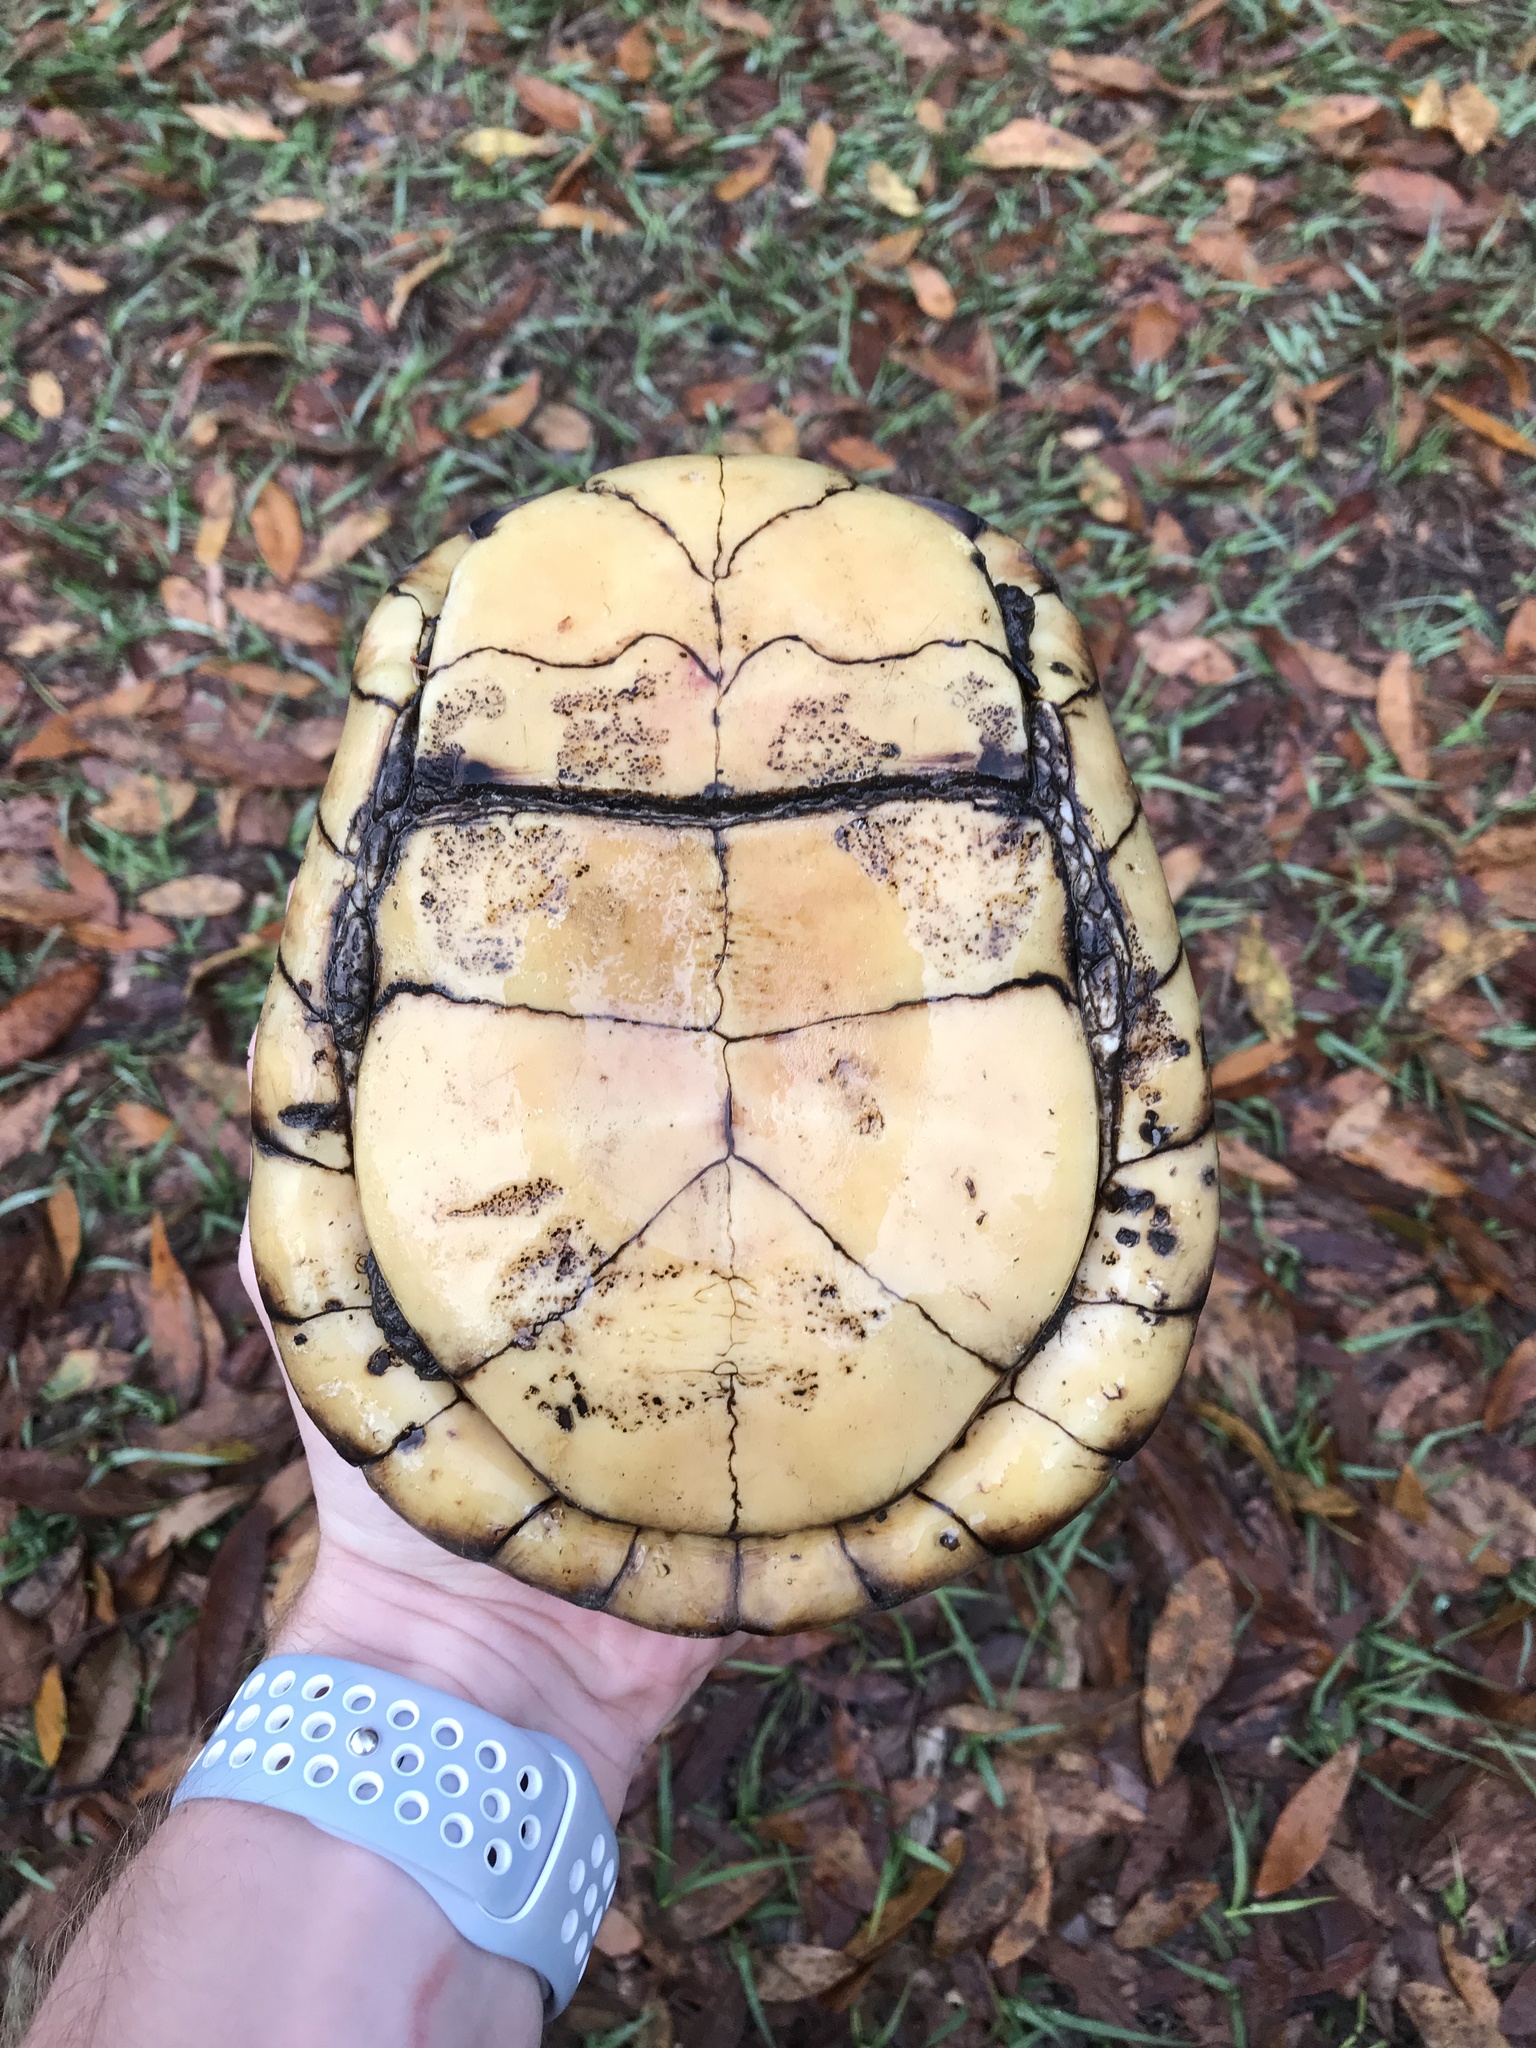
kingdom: Animalia
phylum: Chordata
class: Testudines
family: Emydidae
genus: Terrapene
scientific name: Terrapene carolina
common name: Common box turtle
